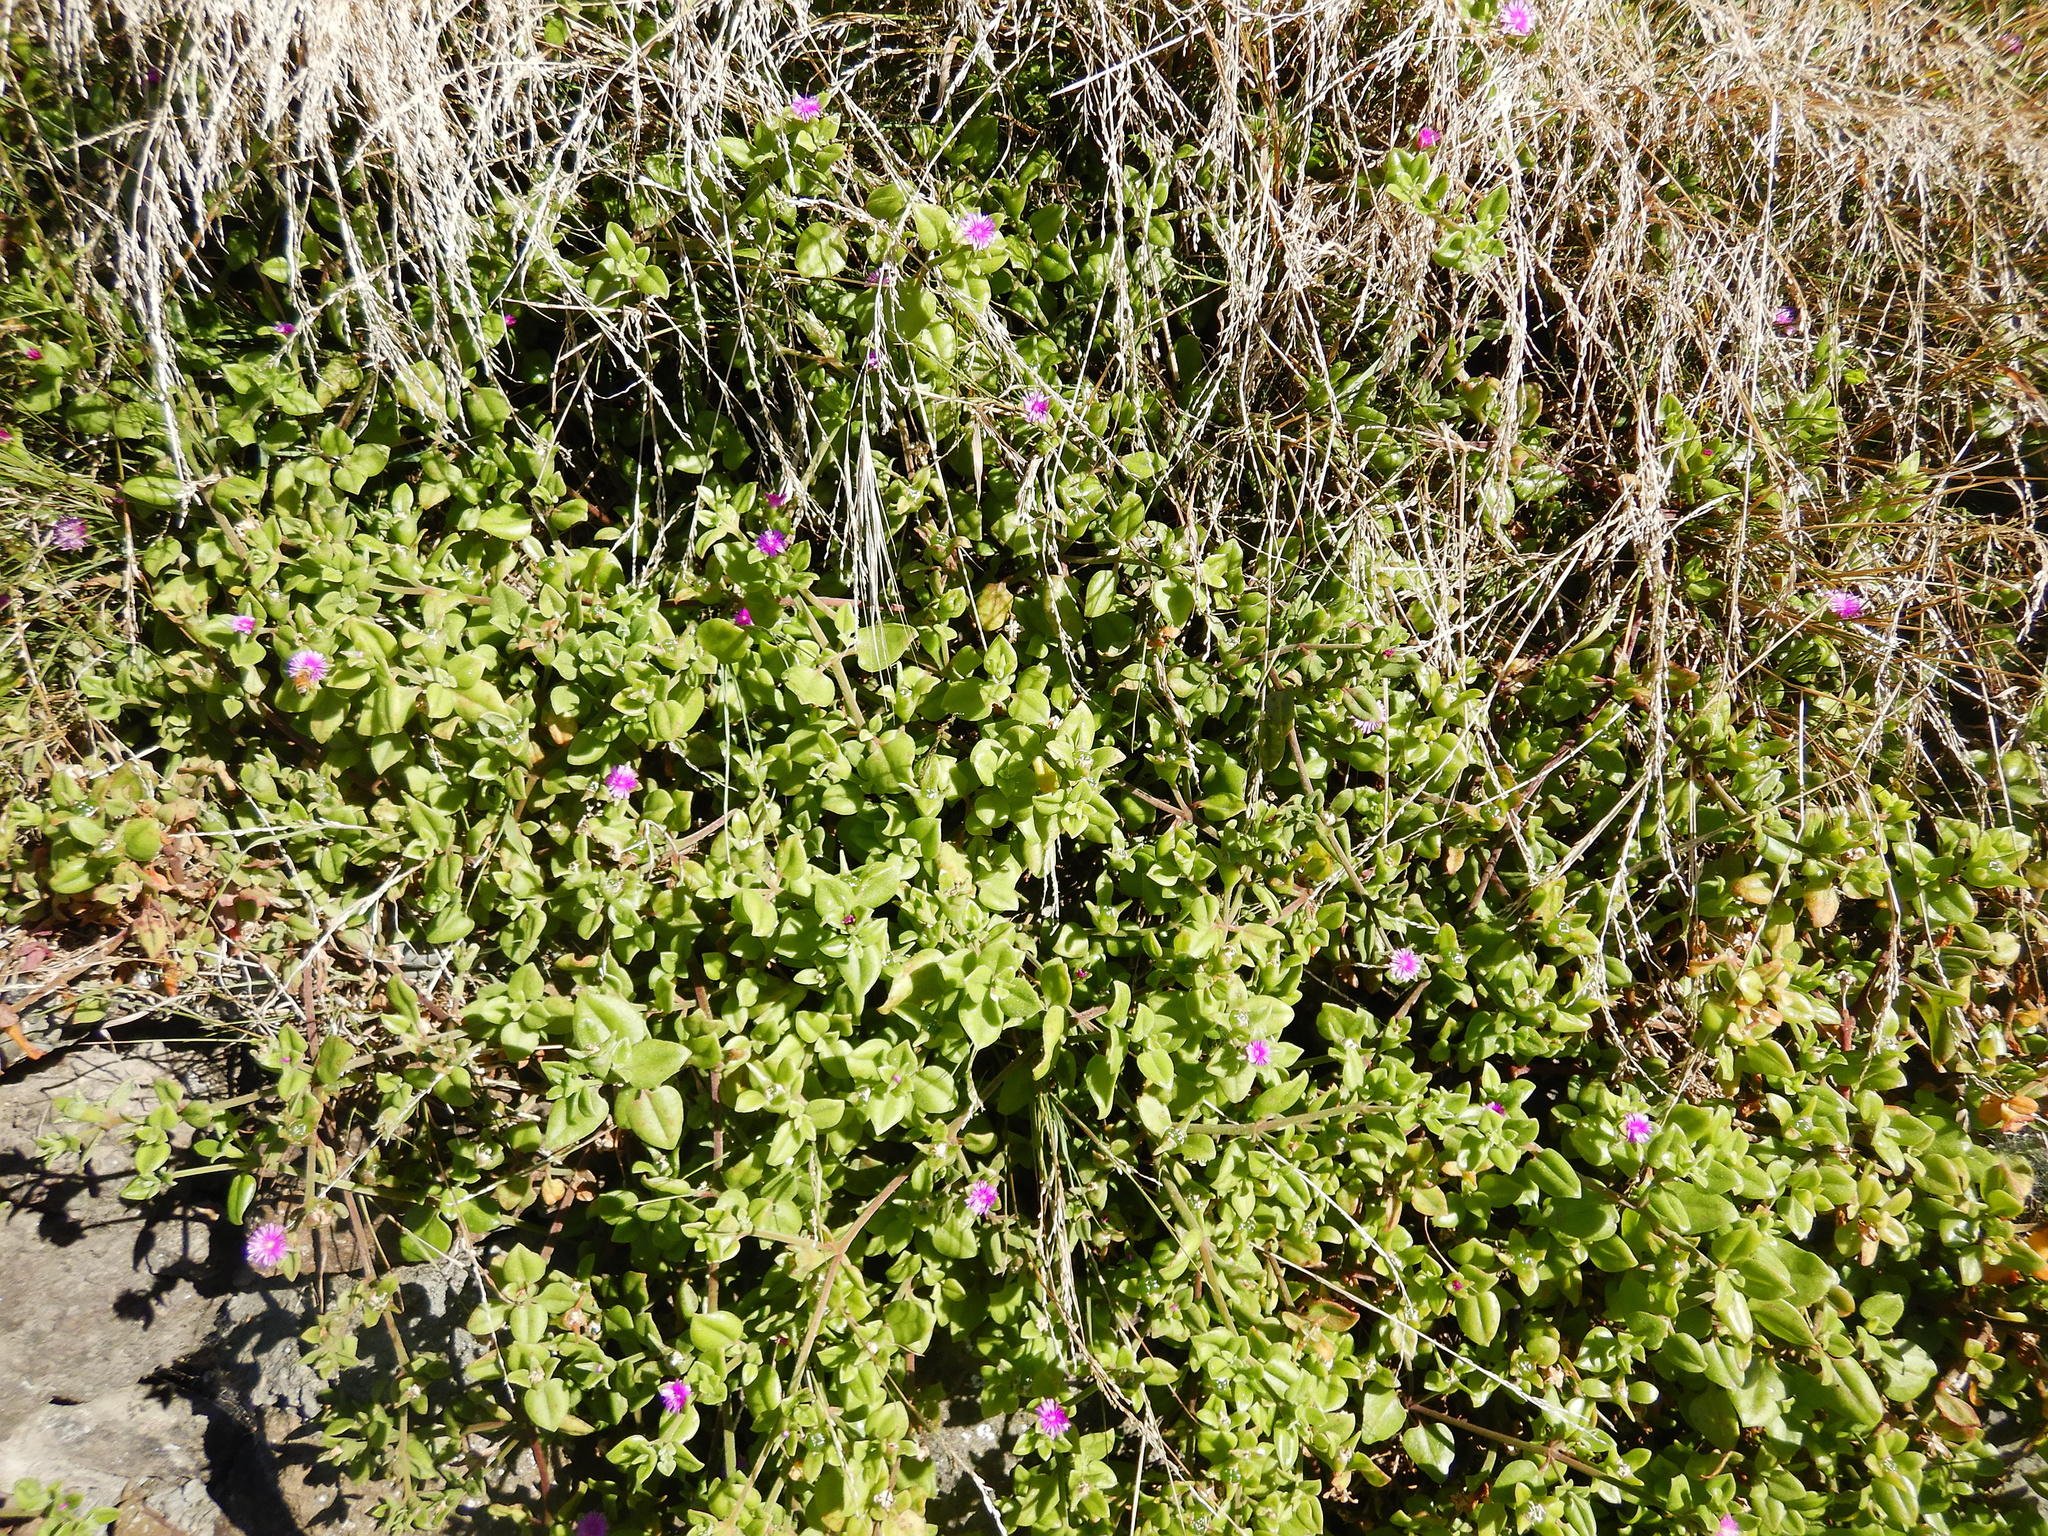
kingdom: Plantae
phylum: Tracheophyta
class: Magnoliopsida
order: Caryophyllales
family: Aizoaceae
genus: Mesembryanthemum
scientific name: Mesembryanthemum cordifolium
